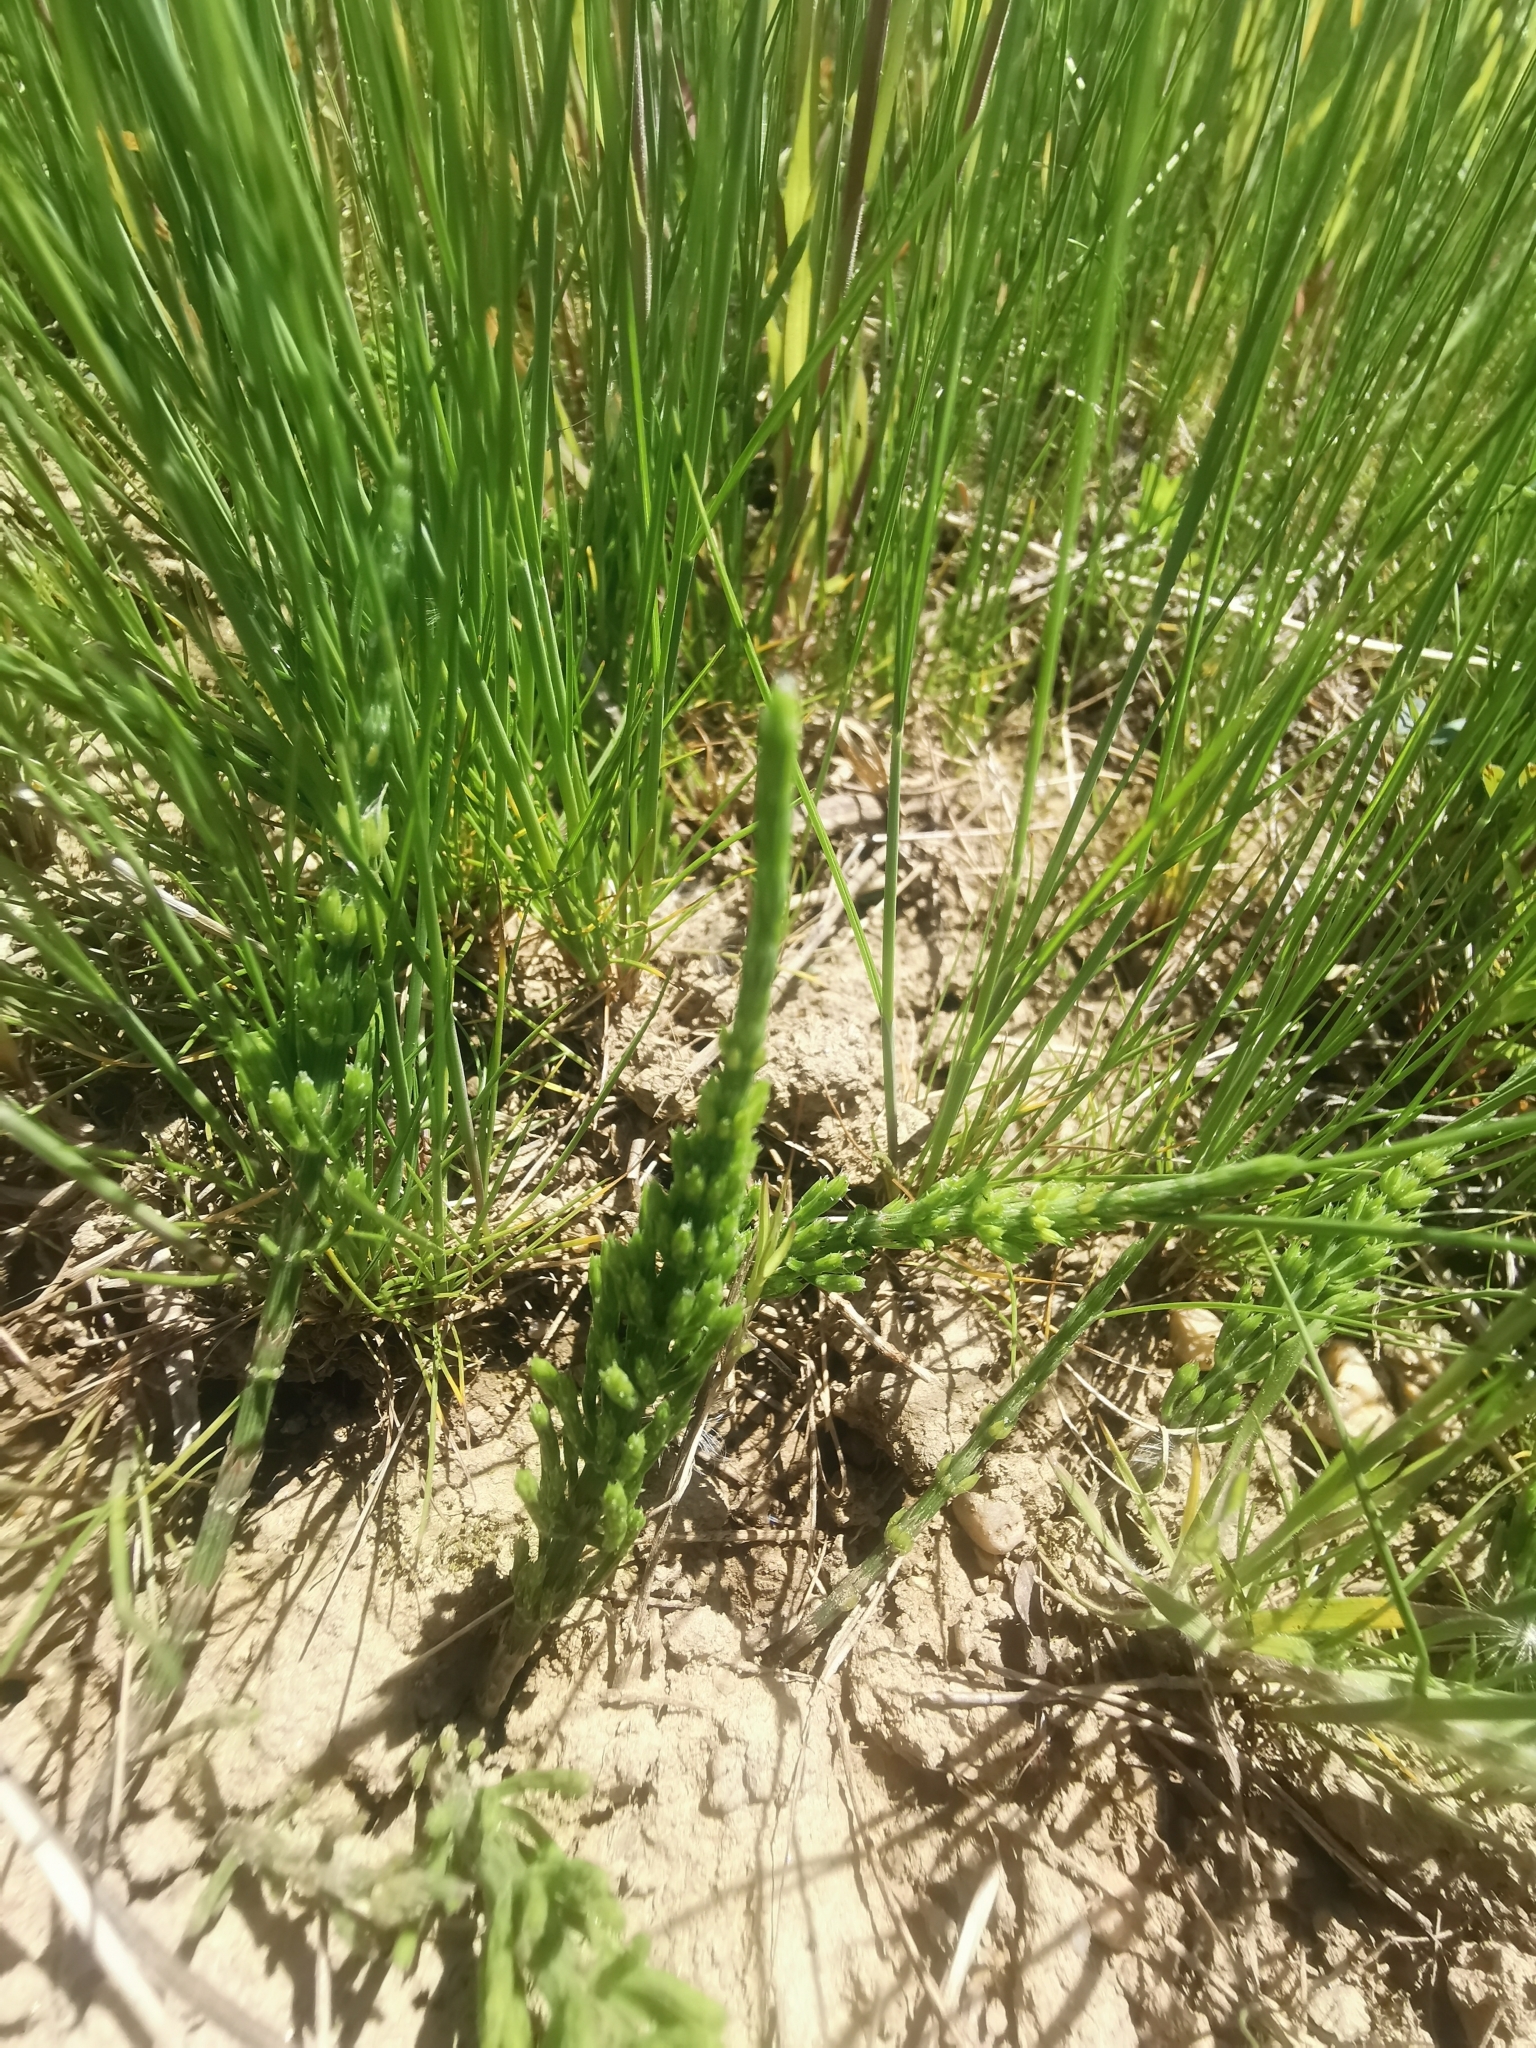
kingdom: Plantae
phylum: Tracheophyta
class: Polypodiopsida
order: Equisetales
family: Equisetaceae
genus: Equisetum
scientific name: Equisetum arvense
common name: Field horsetail
